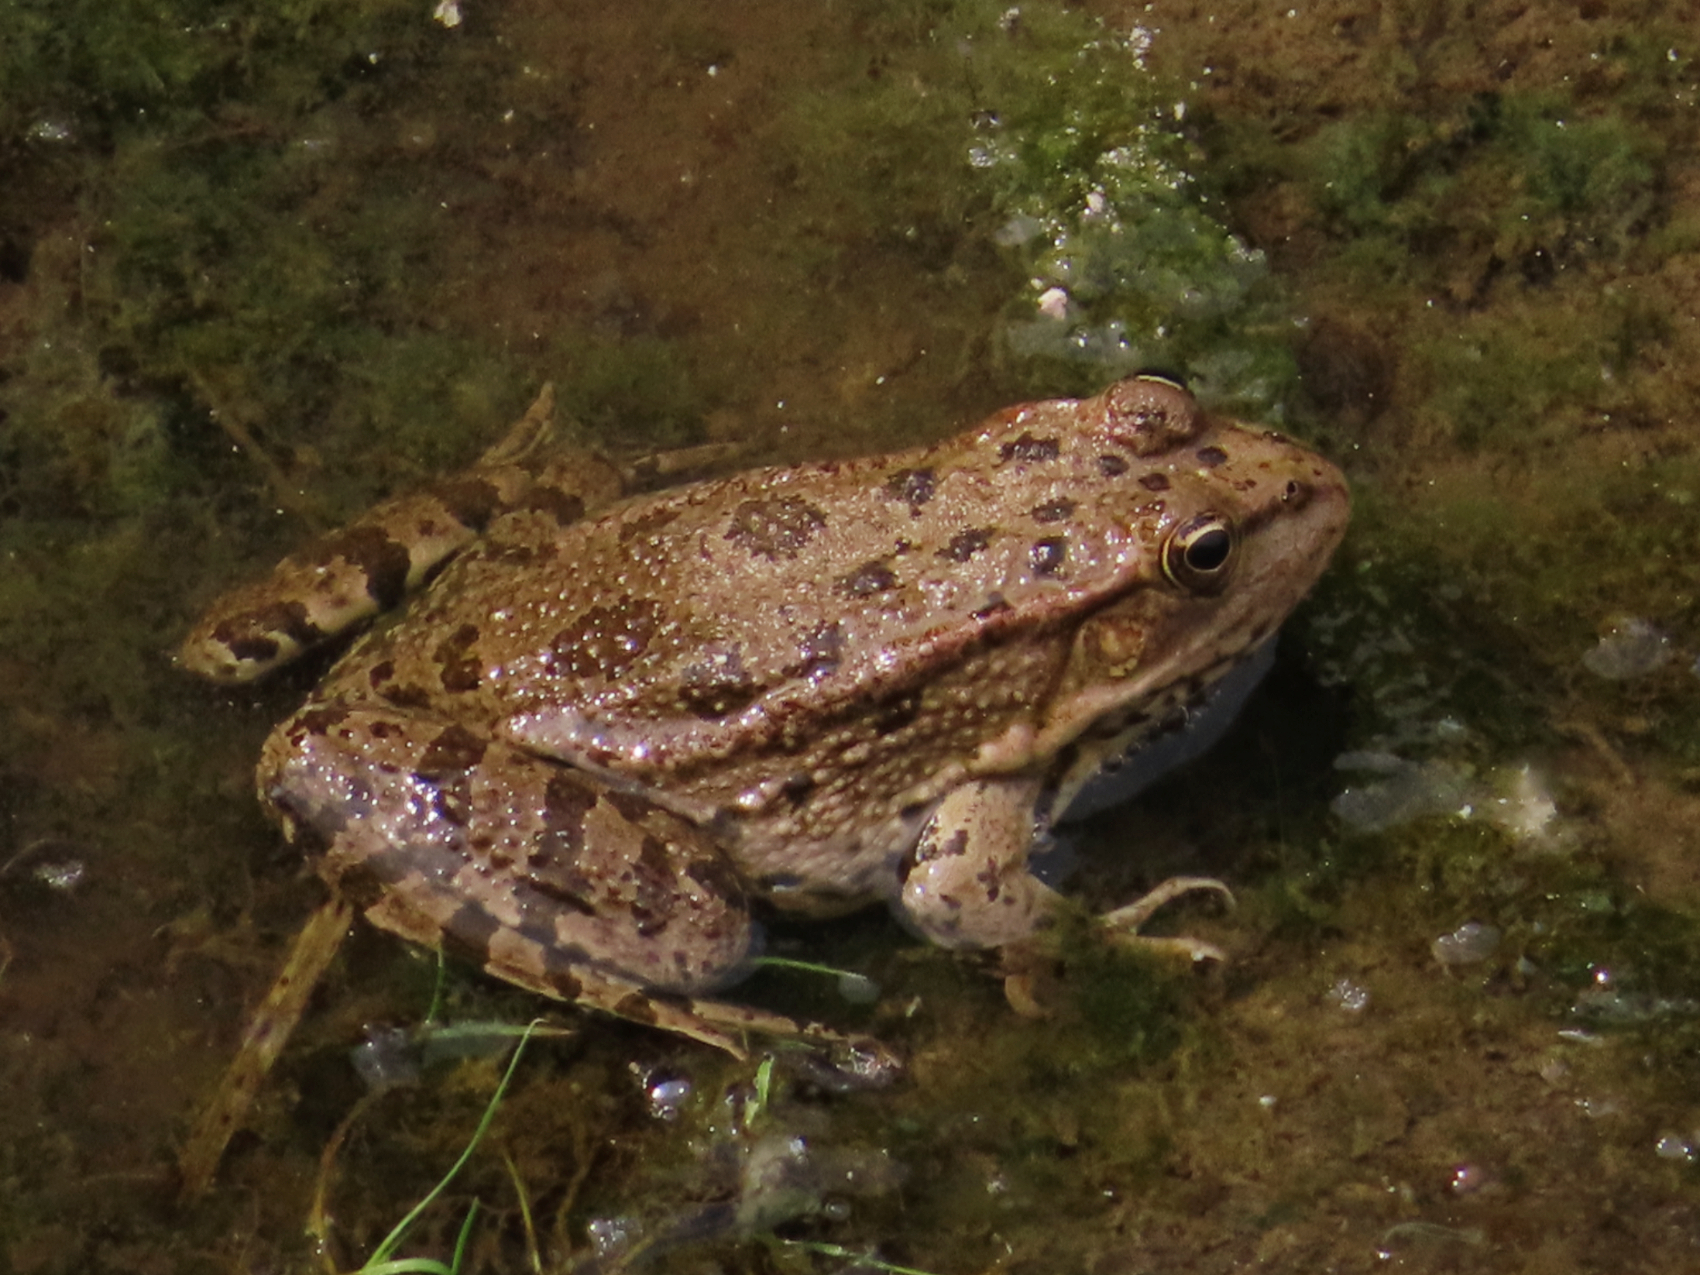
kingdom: Animalia
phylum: Chordata
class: Amphibia
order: Anura
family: Ranidae
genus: Pelophylax
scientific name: Pelophylax ridibundus
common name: Marsh frog
